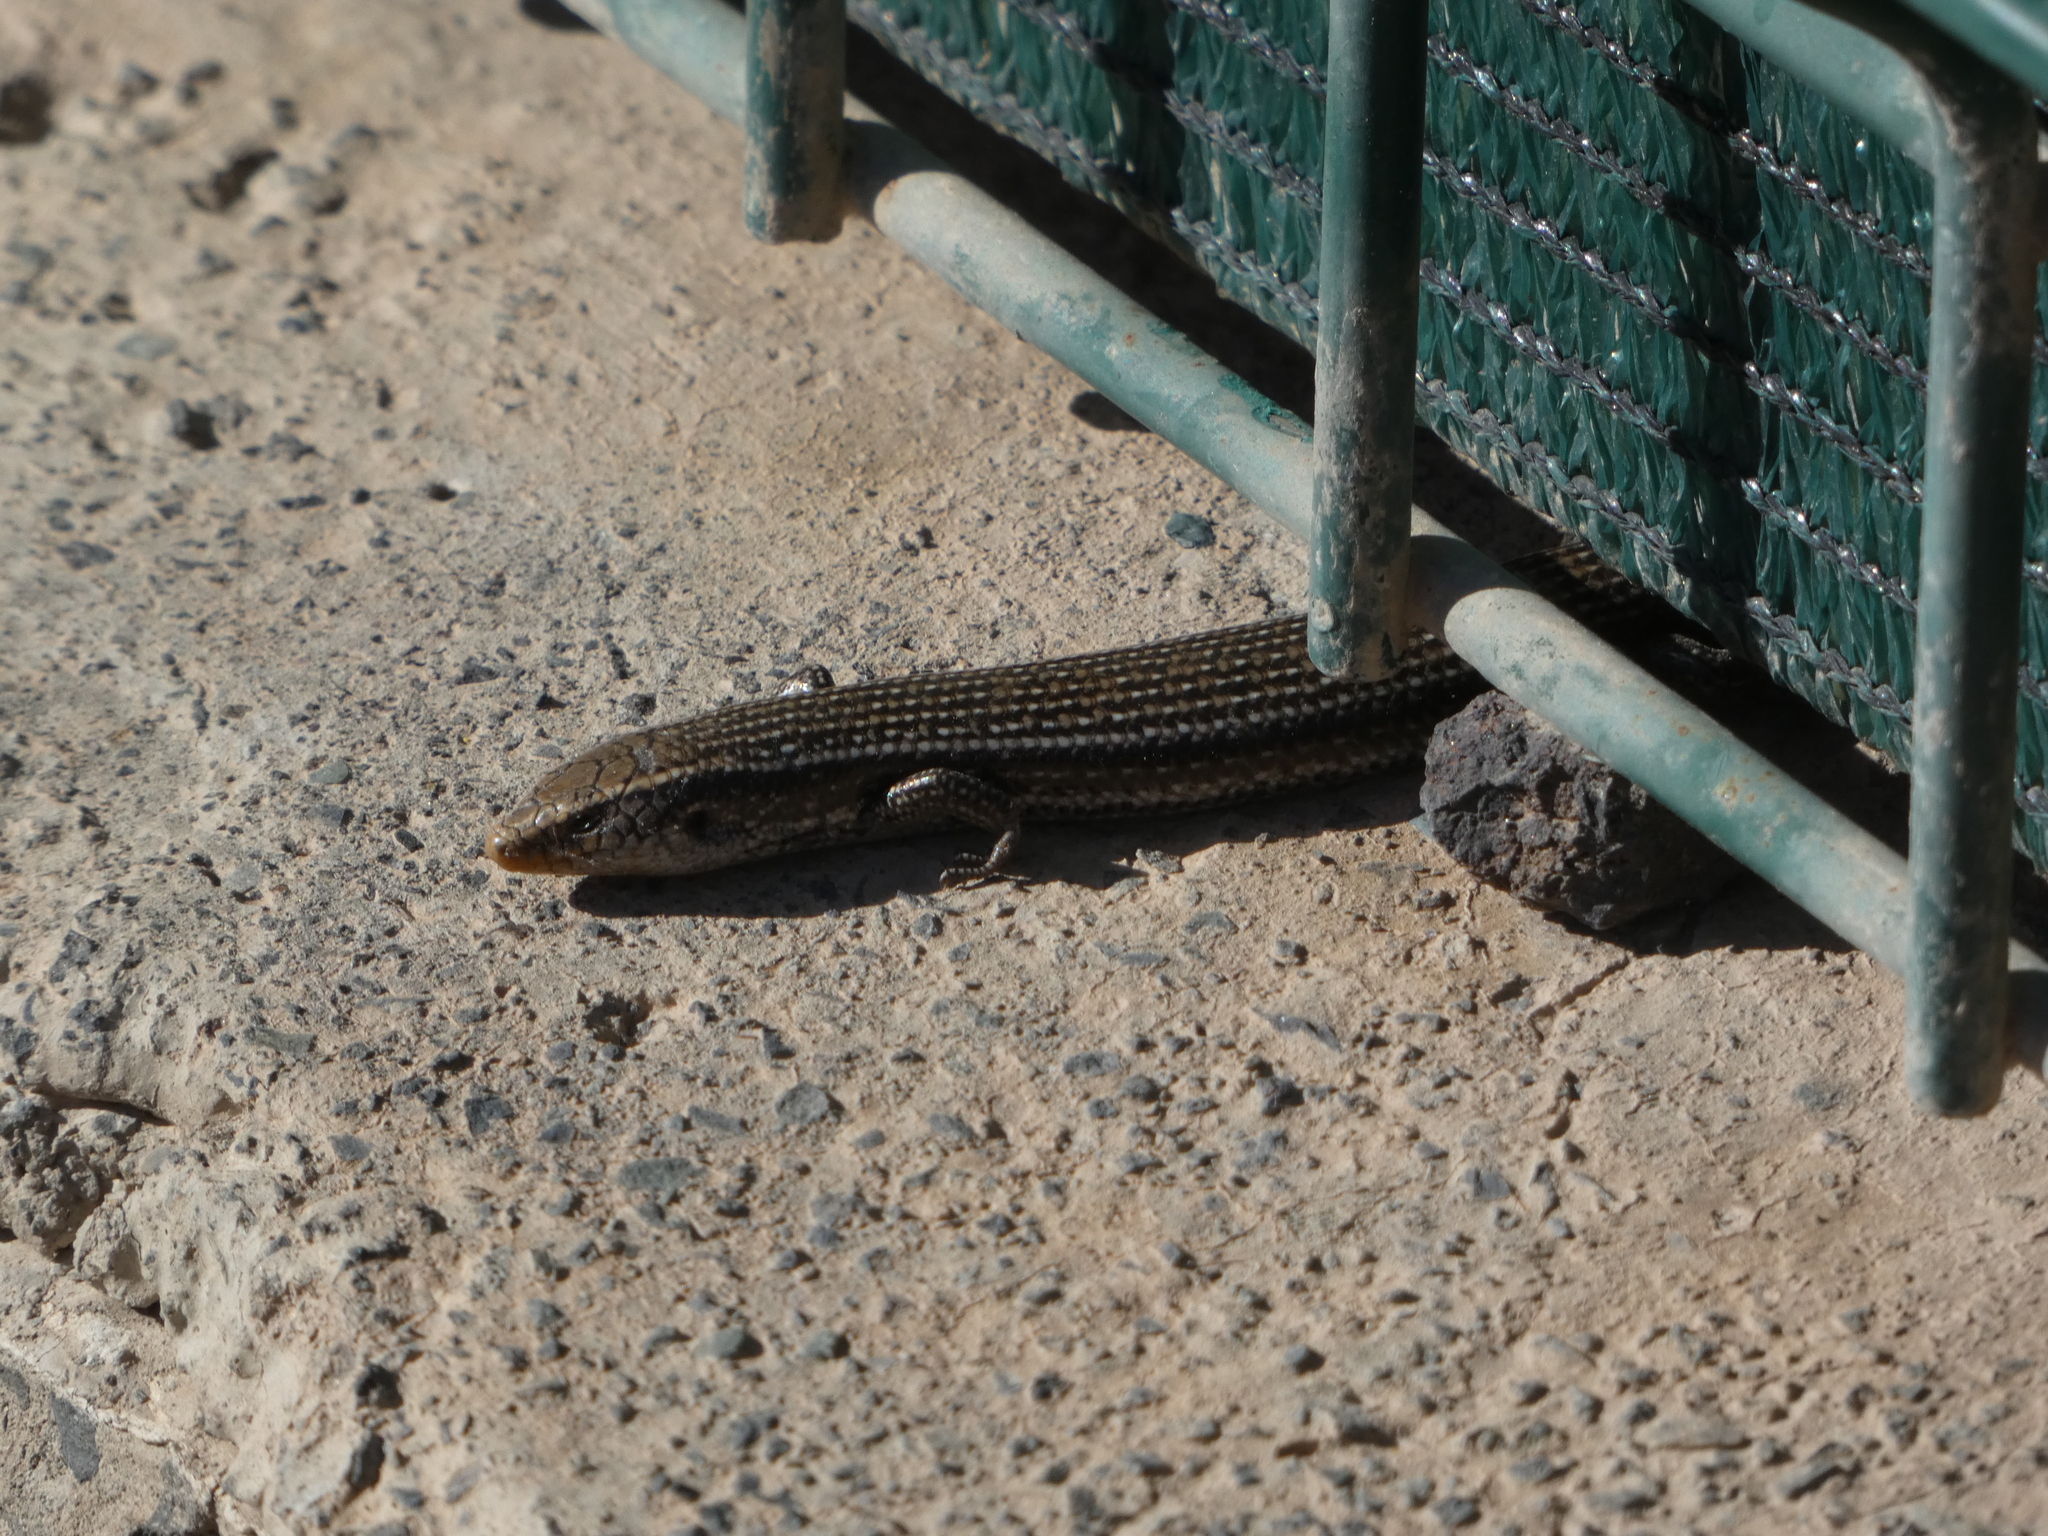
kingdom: Animalia
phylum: Chordata
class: Squamata
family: Scincidae
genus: Chalcides
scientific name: Chalcides sexlineatus
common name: Gran canaria skink
